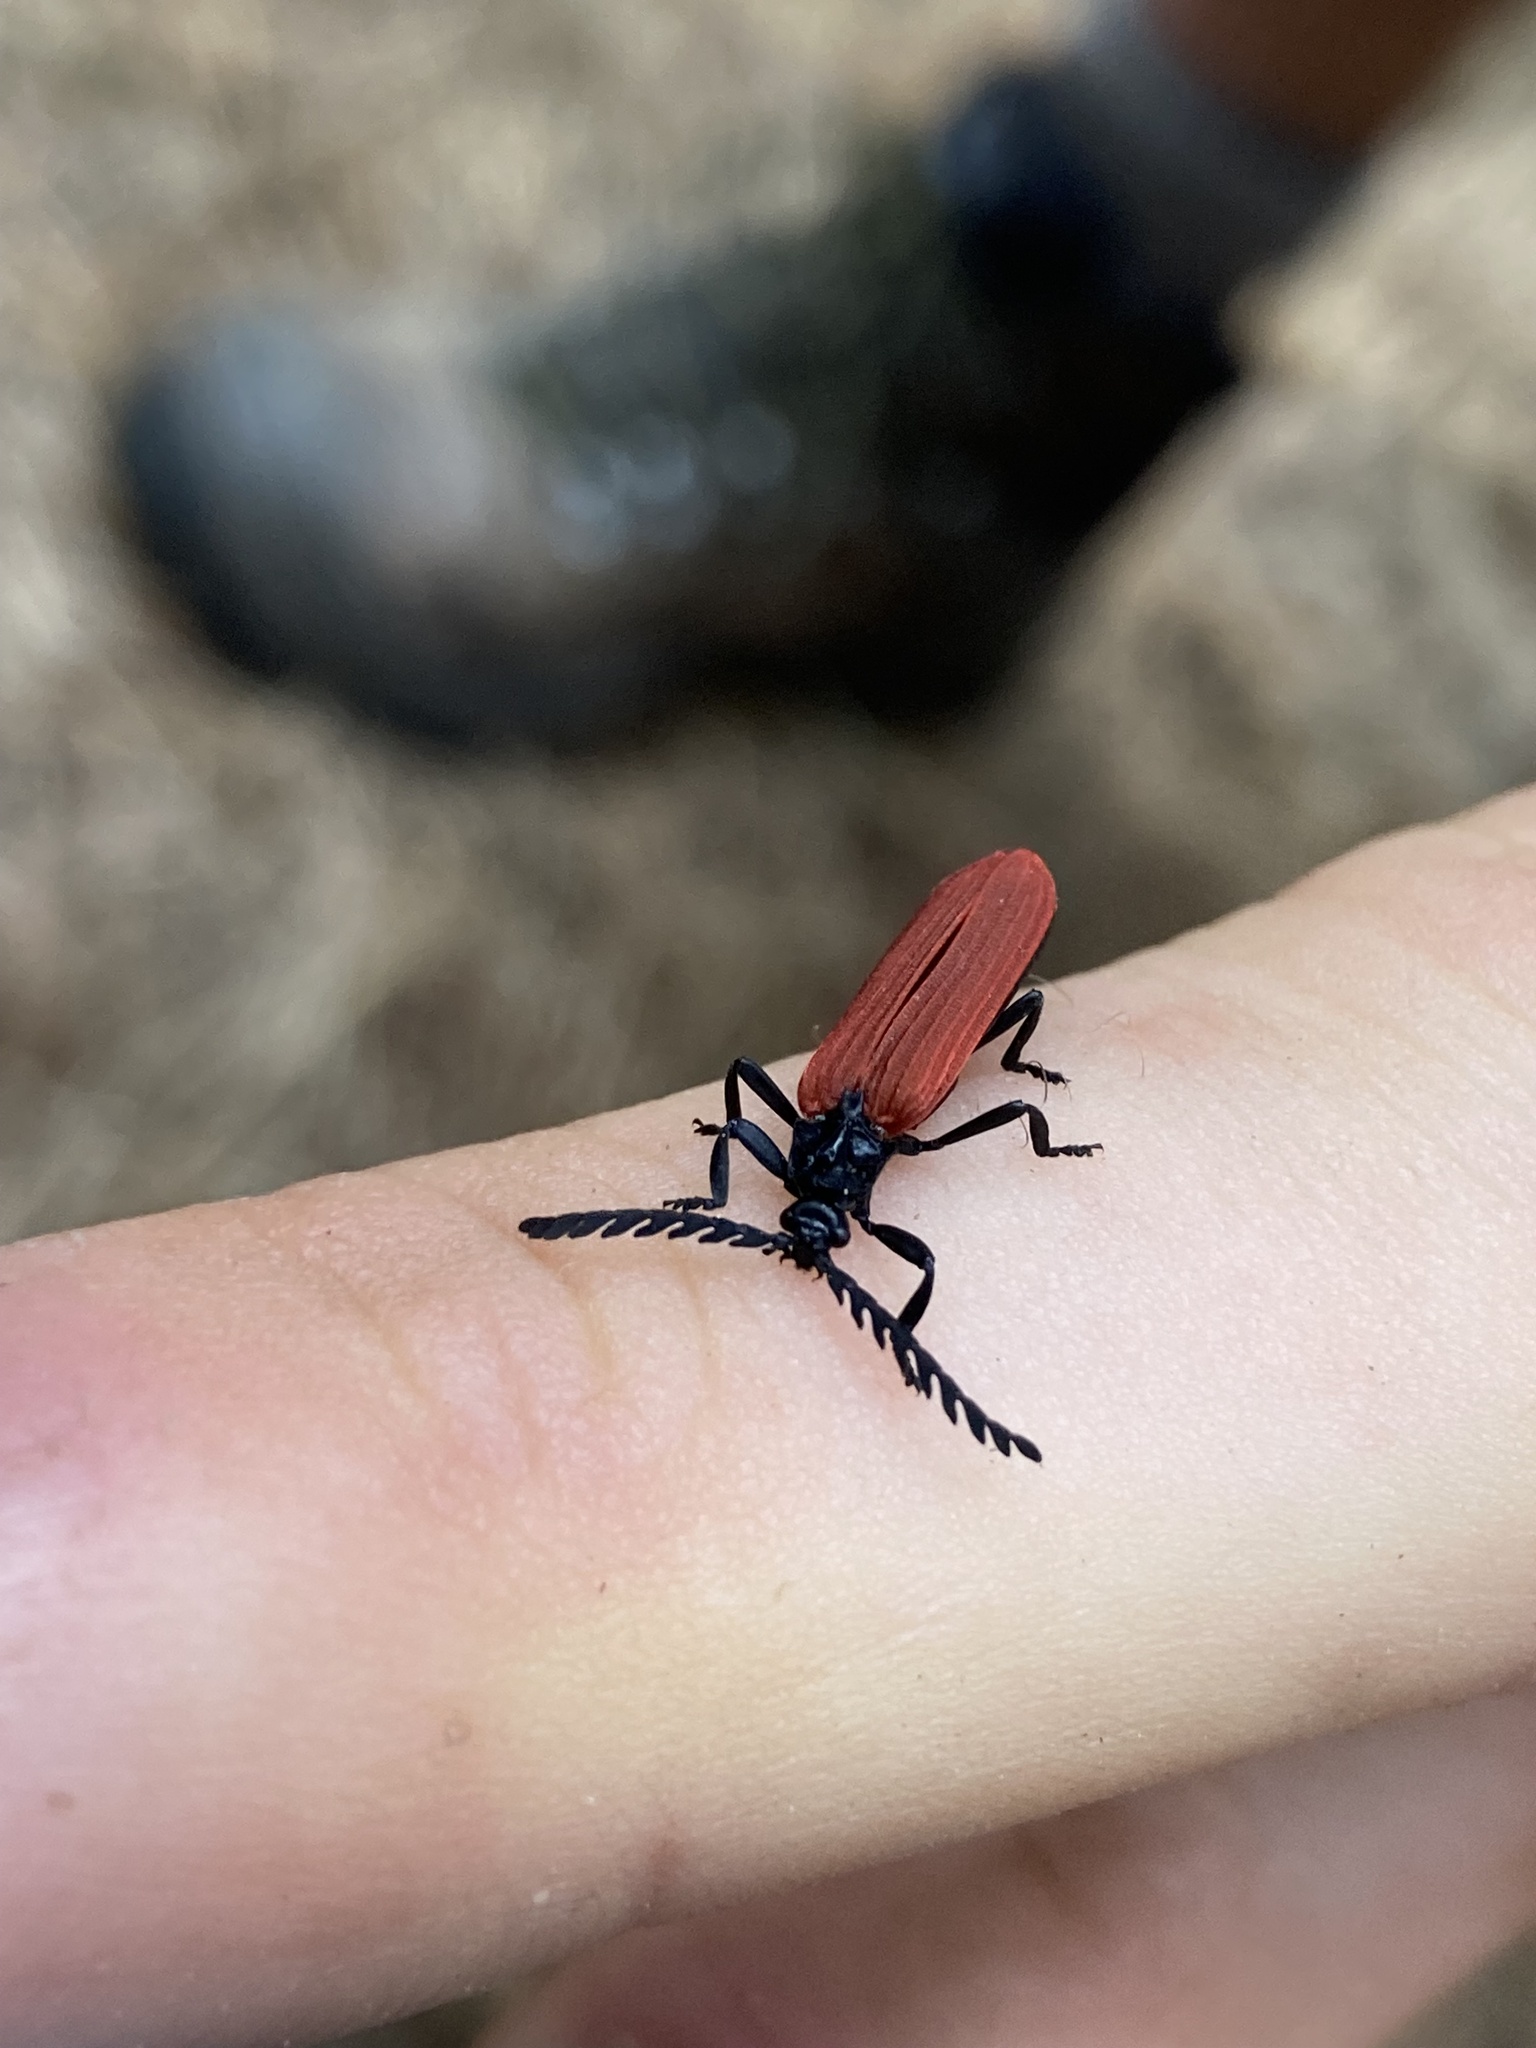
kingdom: Animalia
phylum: Arthropoda
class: Insecta
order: Coleoptera
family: Lycidae
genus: Porrostoma
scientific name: Porrostoma rufipenne
